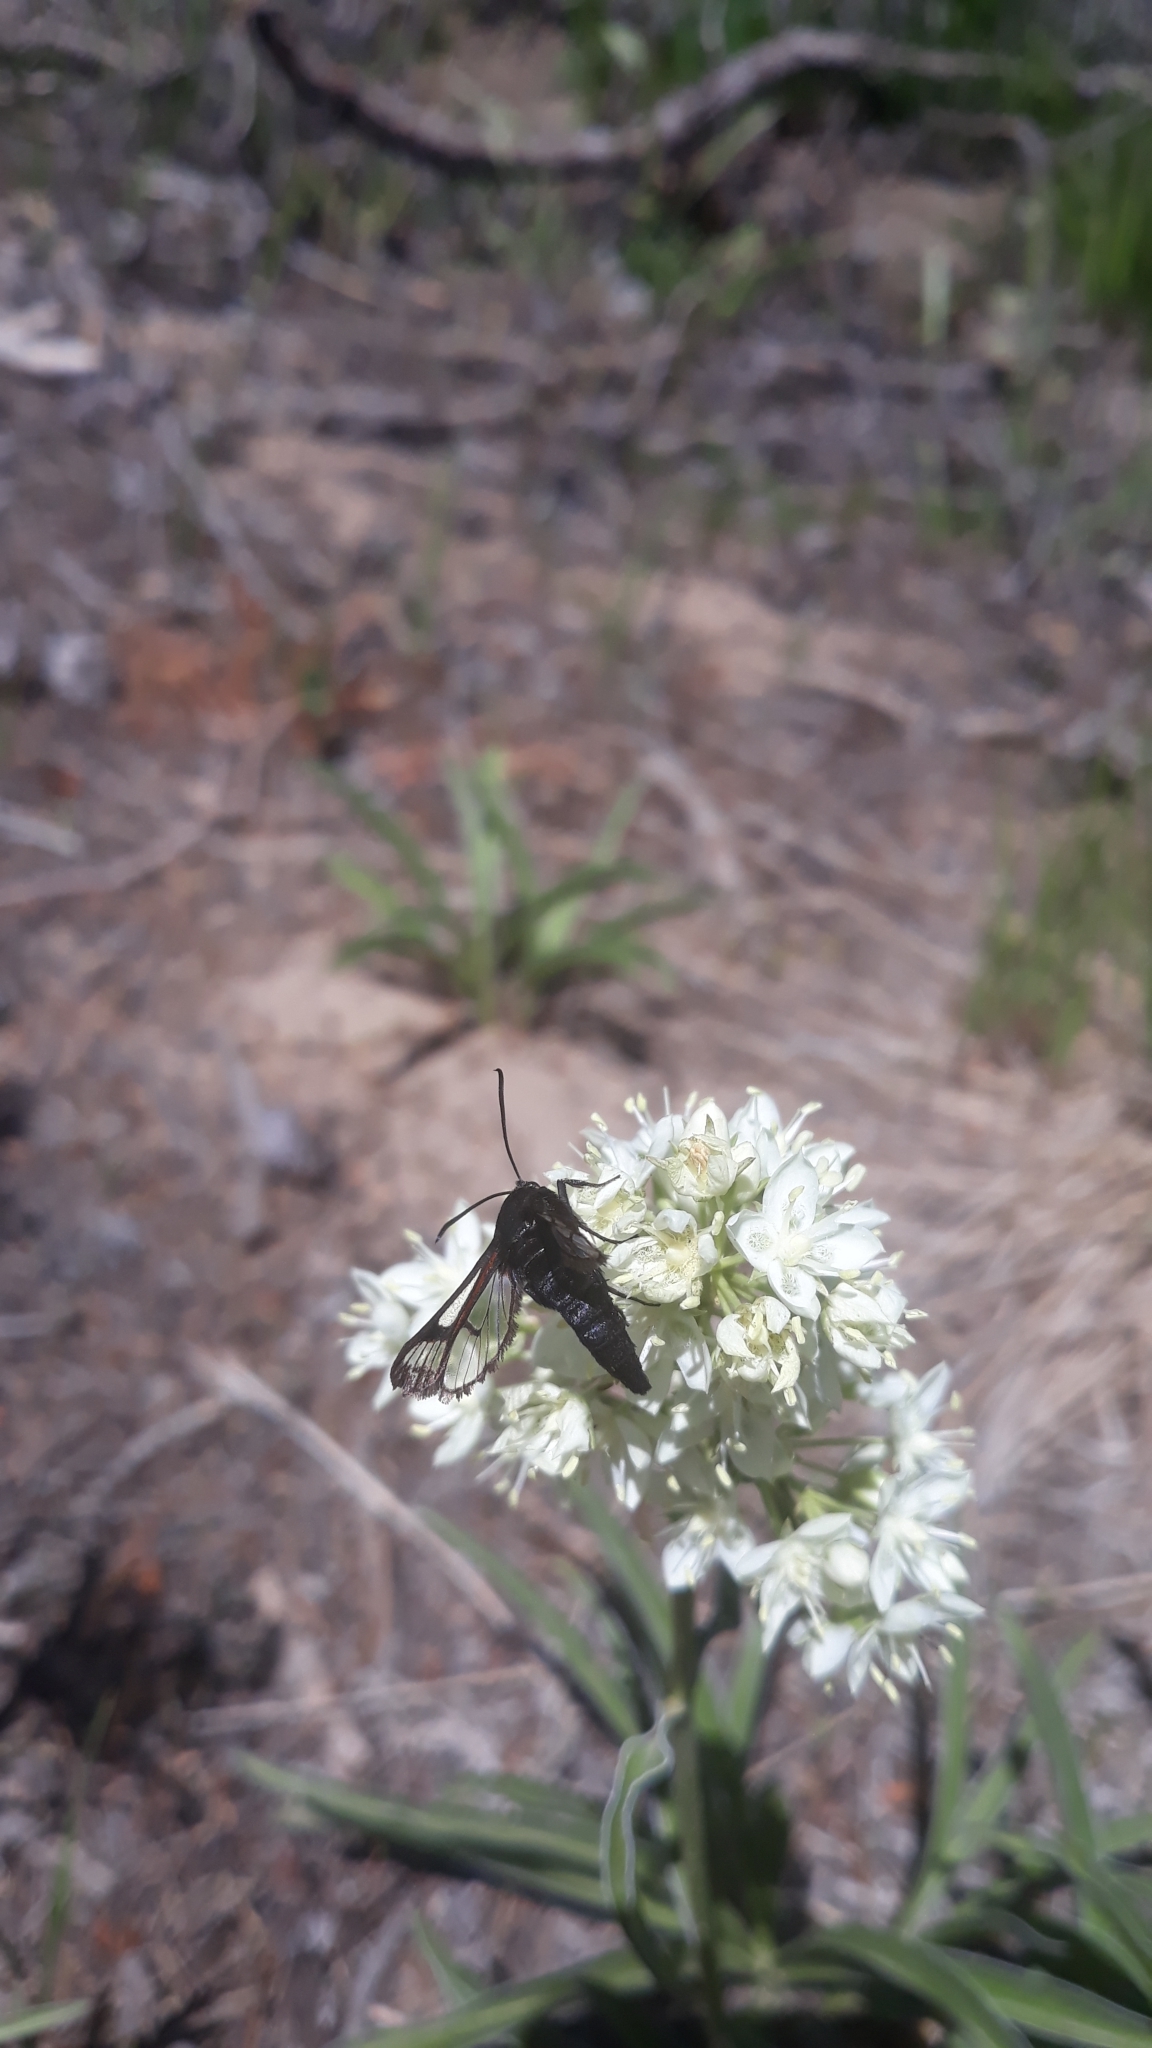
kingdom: Animalia
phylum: Arthropoda
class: Insecta
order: Lepidoptera
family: Sesiidae
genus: Albuna
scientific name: Albuna pyramidalis
